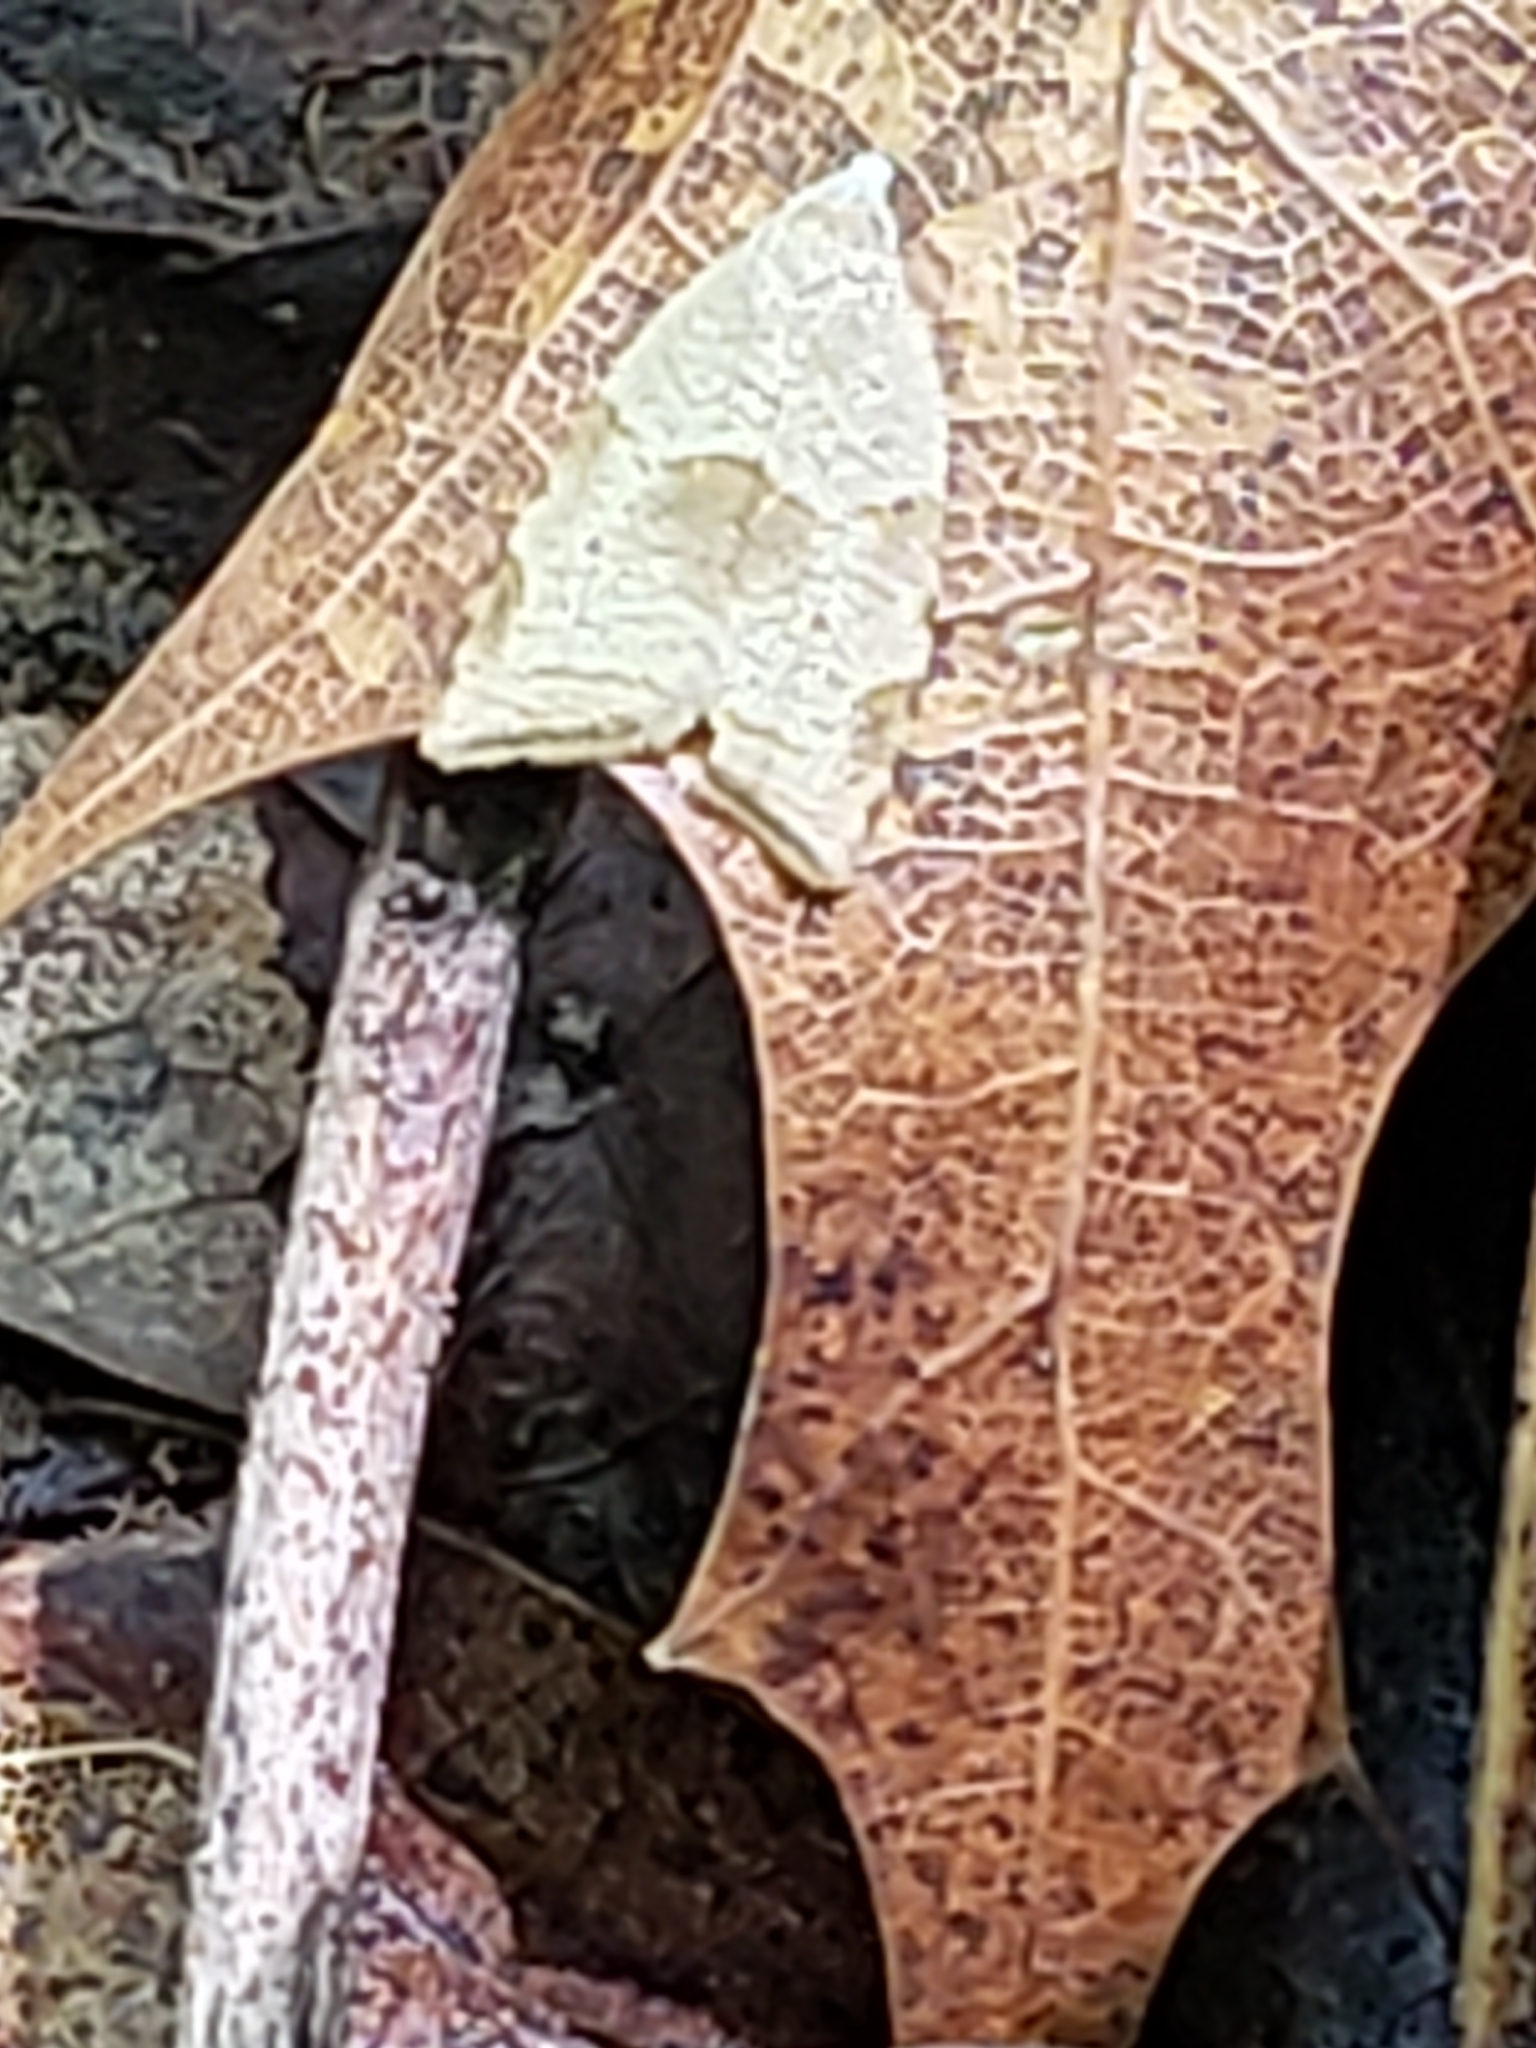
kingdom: Animalia
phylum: Arthropoda
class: Insecta
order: Lepidoptera
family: Tortricidae
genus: Coelostathma
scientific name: Coelostathma discopunctana
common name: Batman moth
